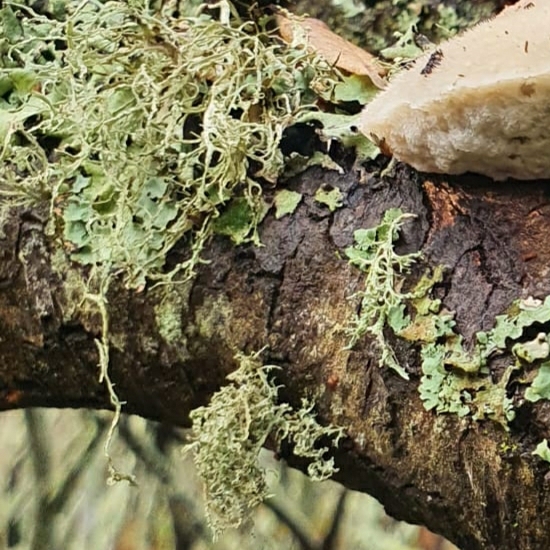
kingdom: Fungi
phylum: Ascomycota
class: Lecanoromycetes
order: Lecanorales
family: Parmeliaceae
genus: Evernia
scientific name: Evernia prunastri
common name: Oak moss
